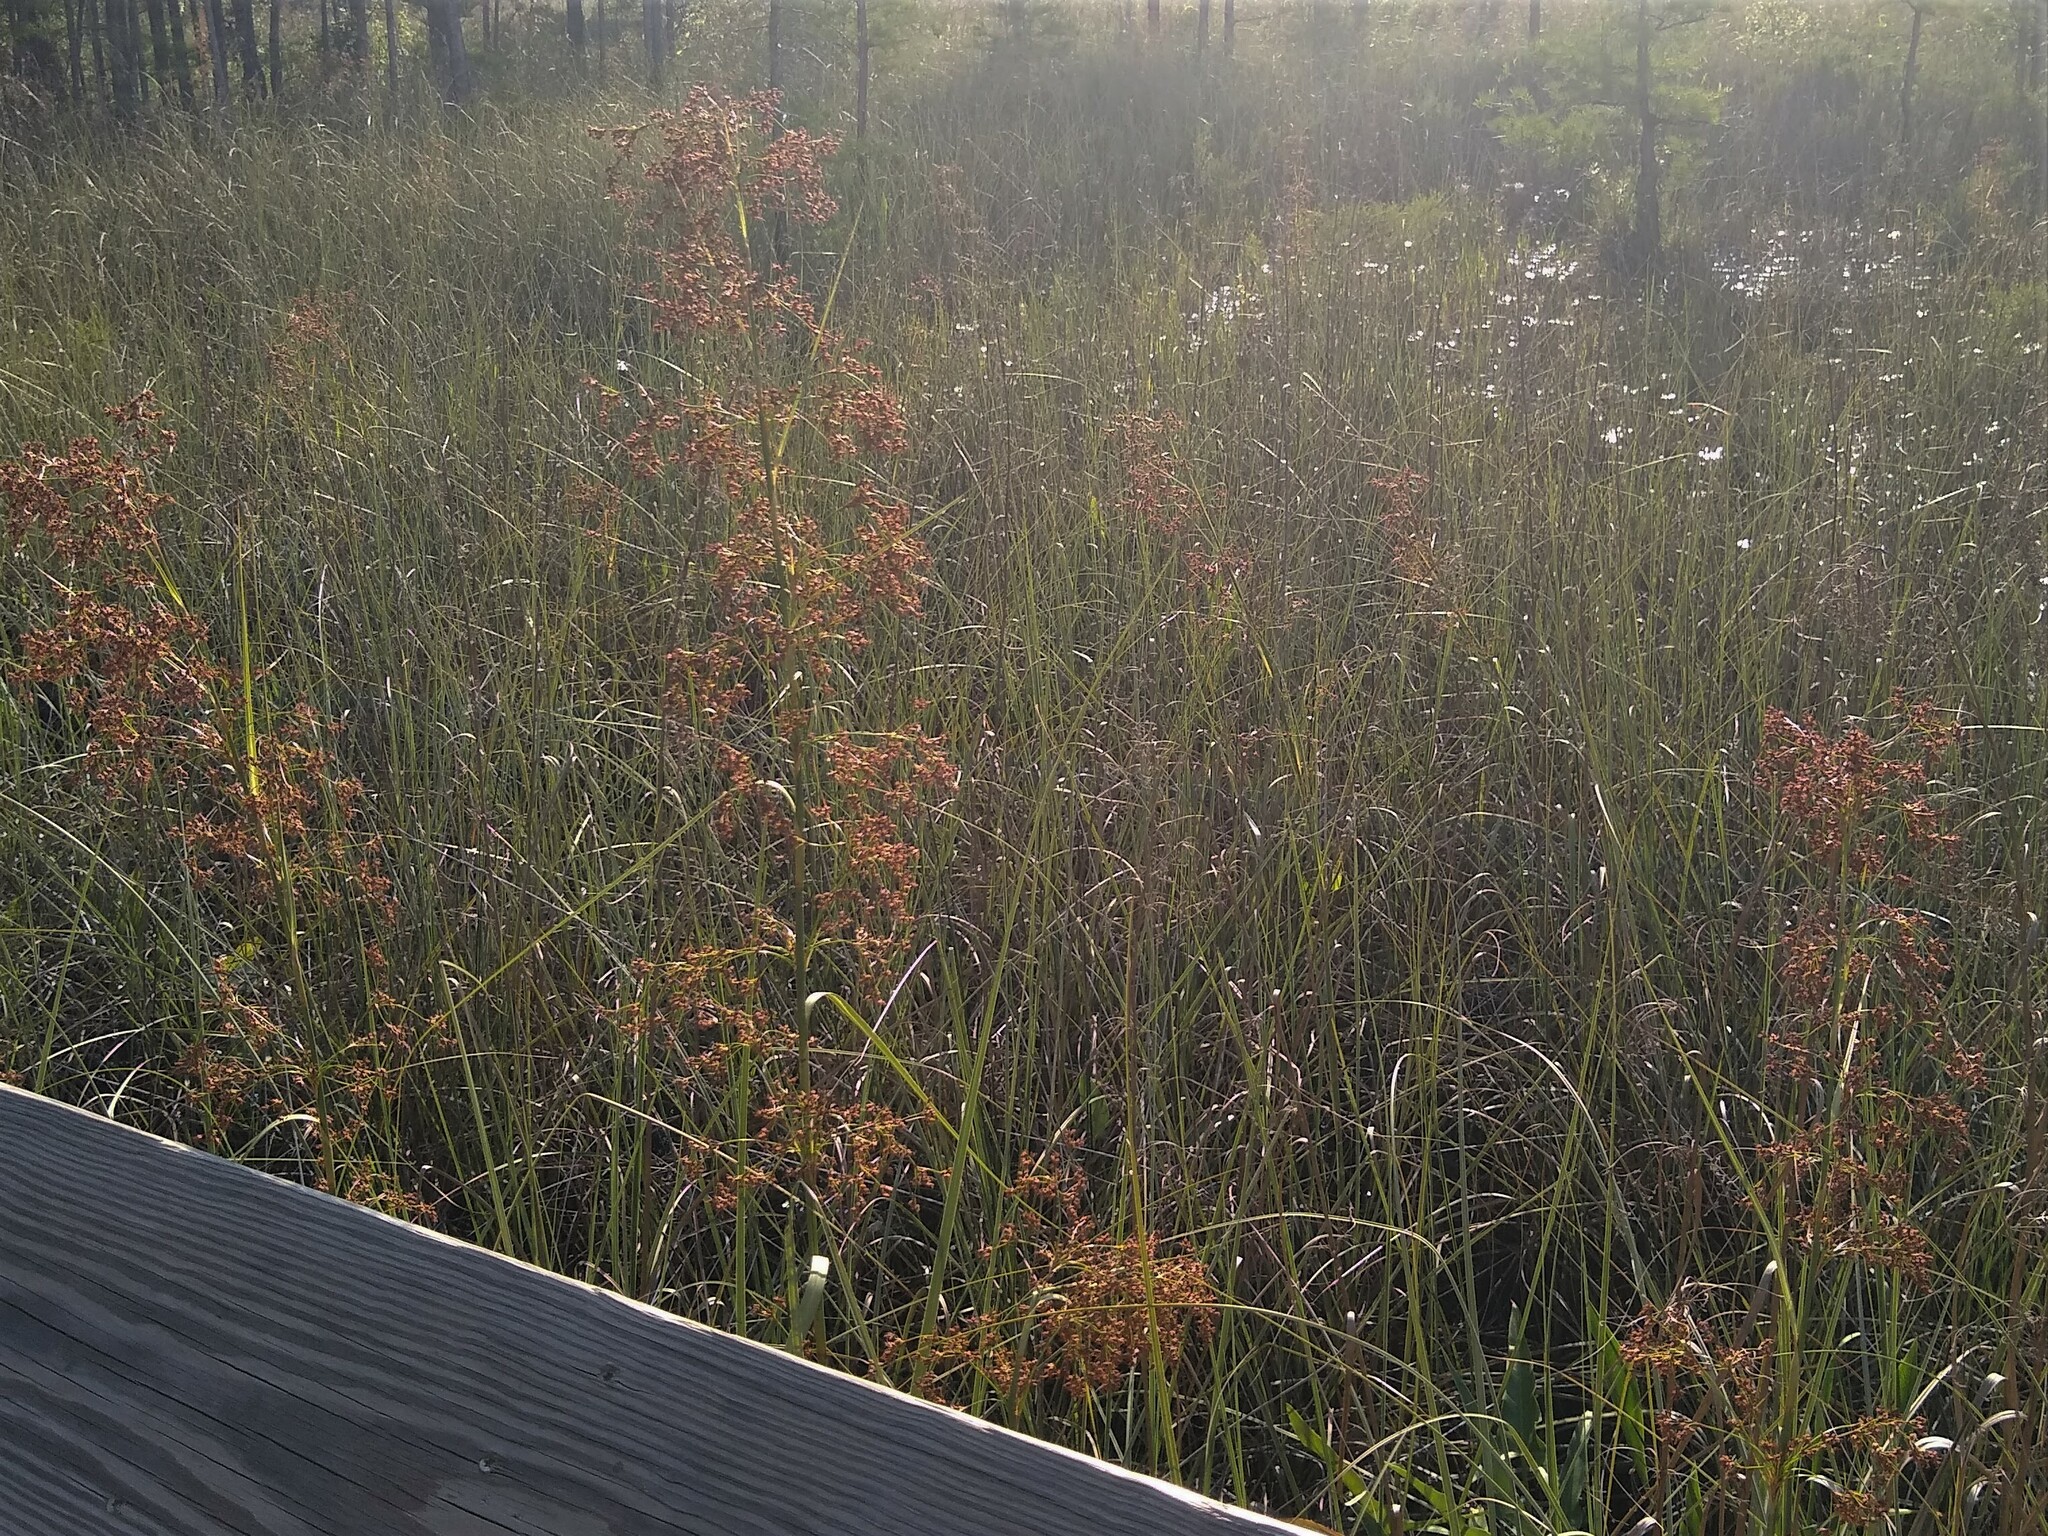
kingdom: Plantae
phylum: Tracheophyta
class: Liliopsida
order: Poales
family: Cyperaceae
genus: Cladium
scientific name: Cladium mariscus
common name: Great fen-sedge
